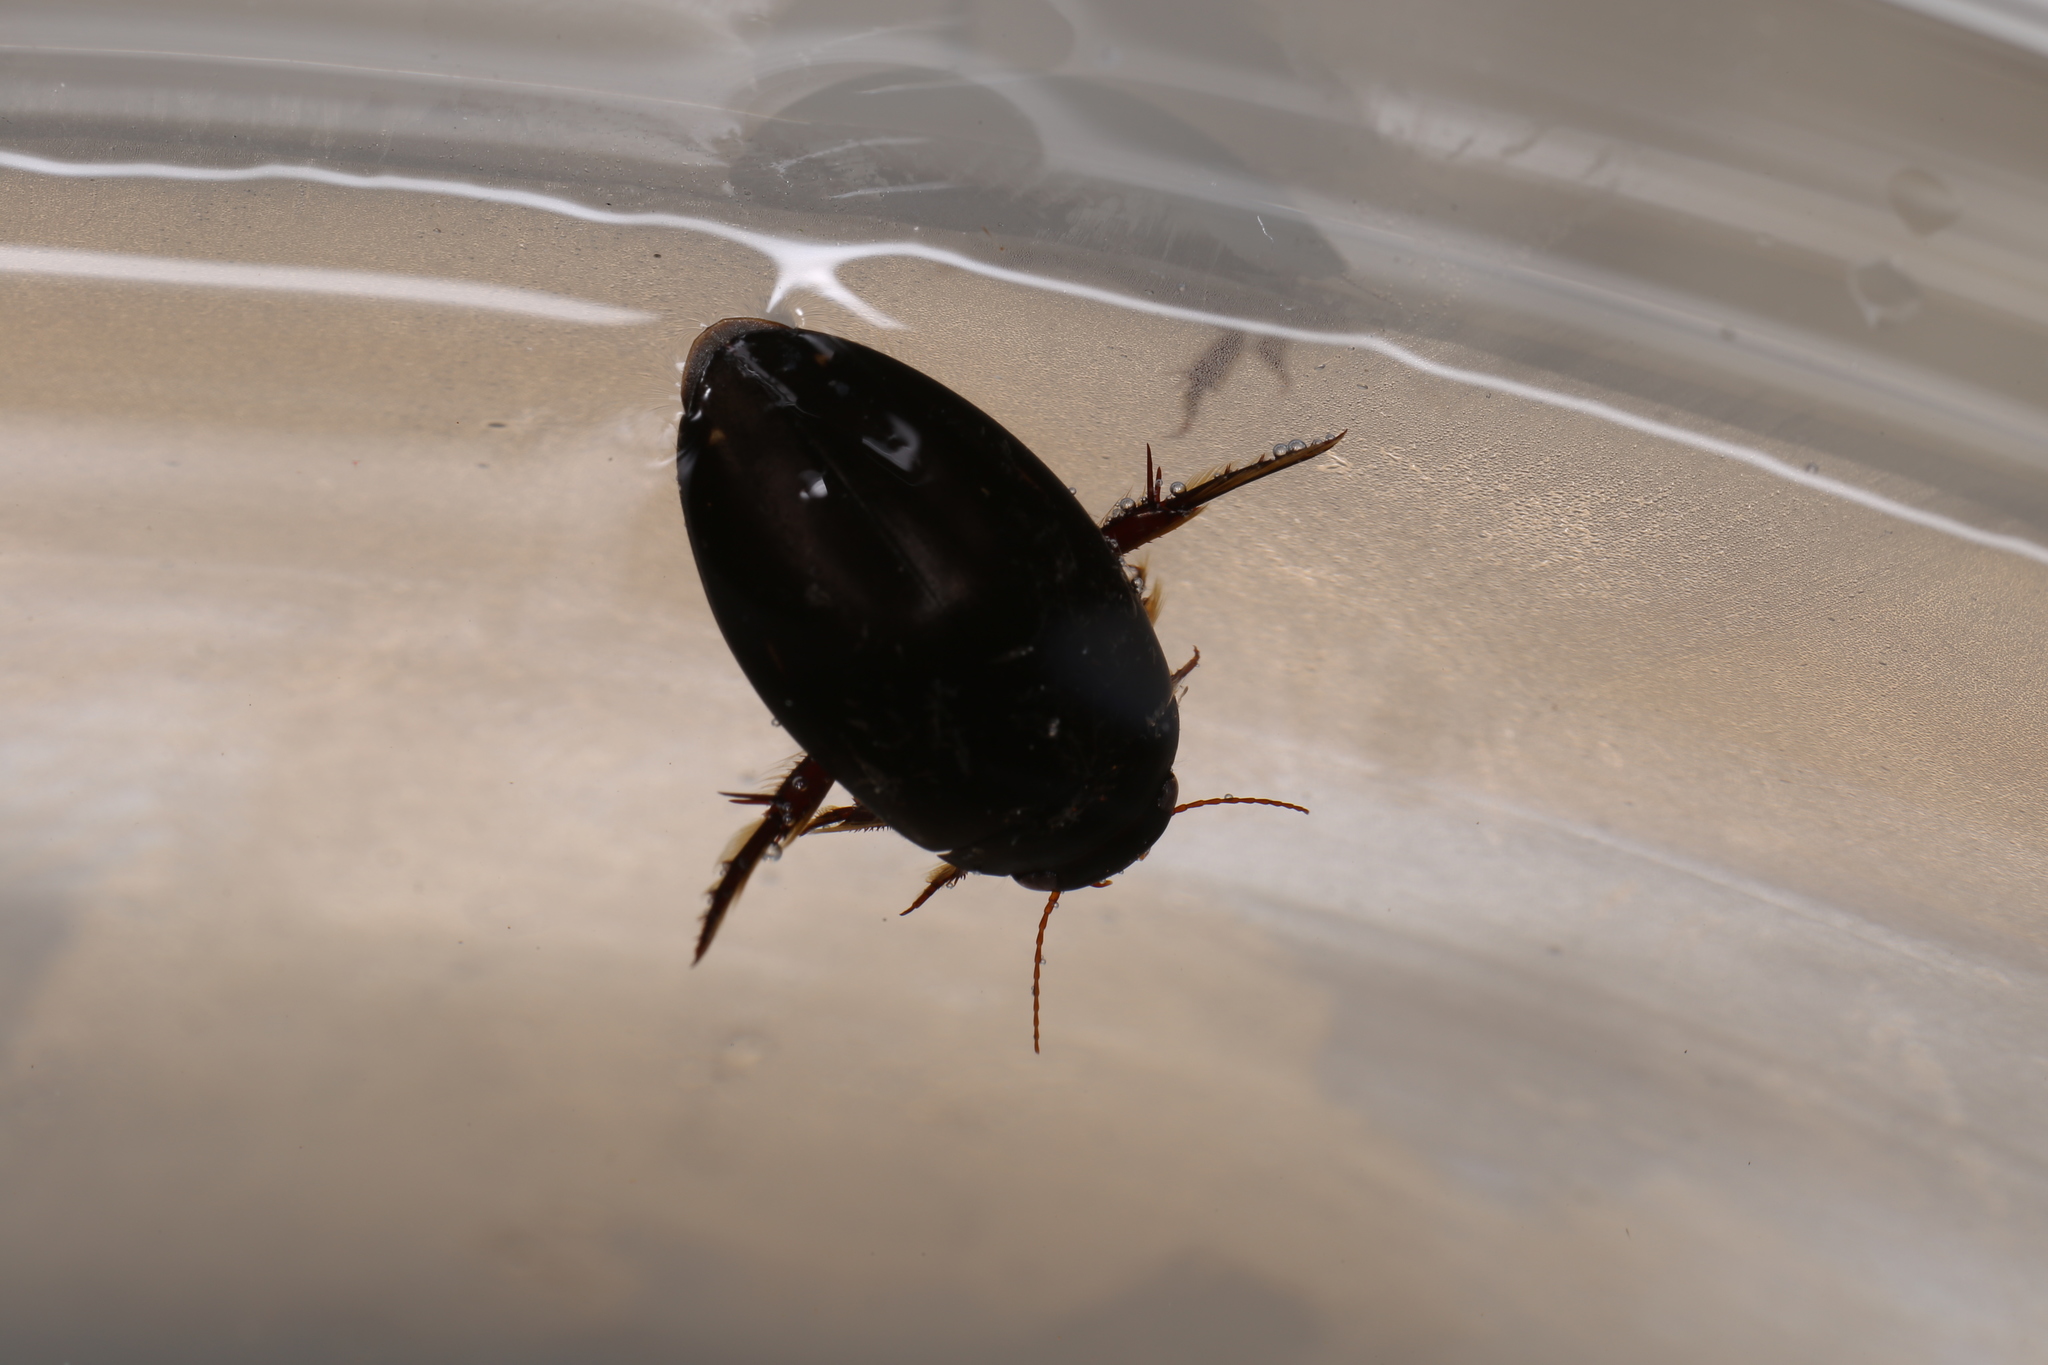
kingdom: Animalia
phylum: Arthropoda
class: Insecta
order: Coleoptera
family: Dytiscidae
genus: Ilybius
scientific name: Ilybius quadriguttatus
